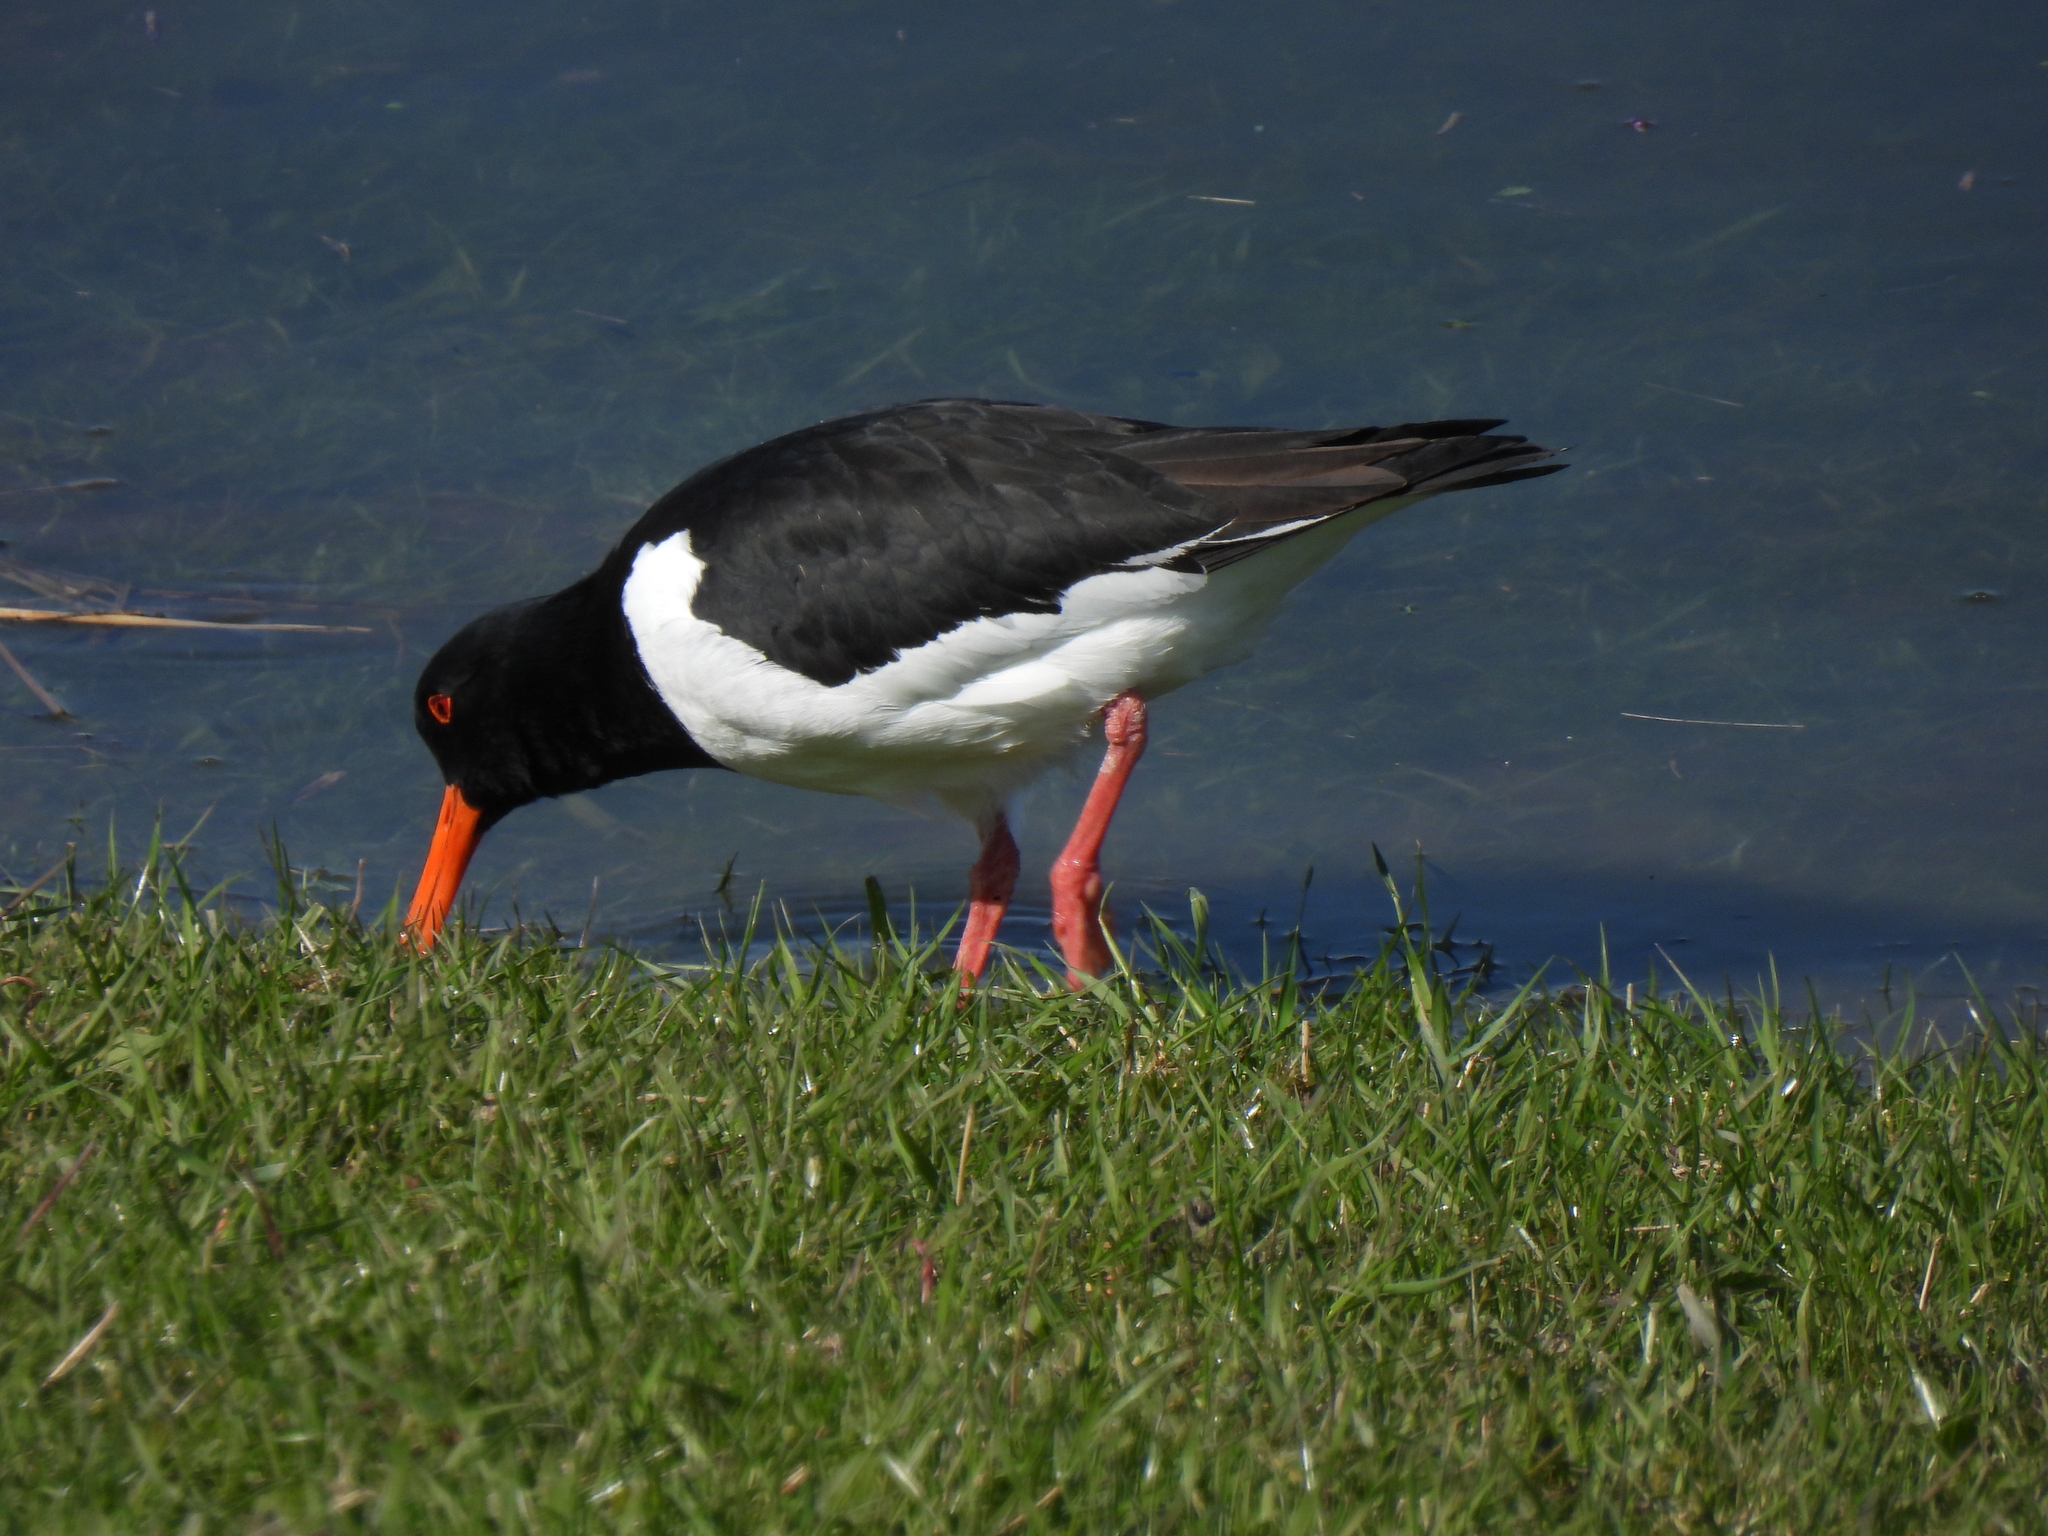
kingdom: Animalia
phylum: Chordata
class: Aves
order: Charadriiformes
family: Haematopodidae
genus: Haematopus
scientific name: Haematopus ostralegus
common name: Eurasian oystercatcher
